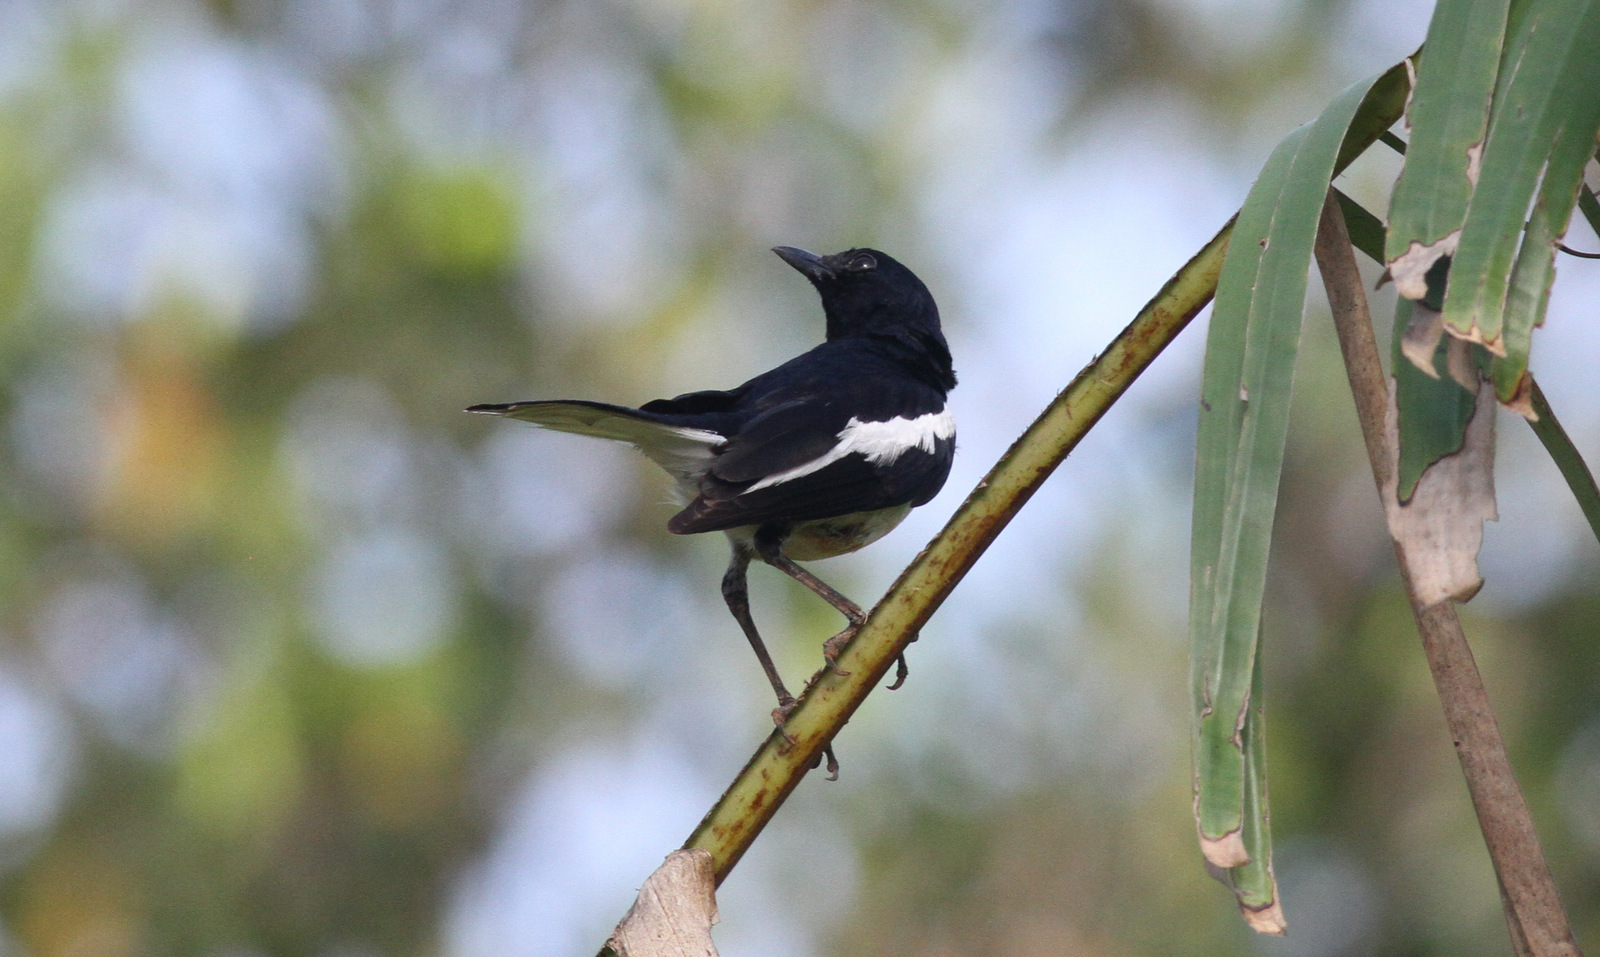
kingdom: Animalia
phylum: Chordata
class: Aves
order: Passeriformes
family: Muscicapidae
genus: Copsychus
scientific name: Copsychus saularis
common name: Oriental magpie-robin
